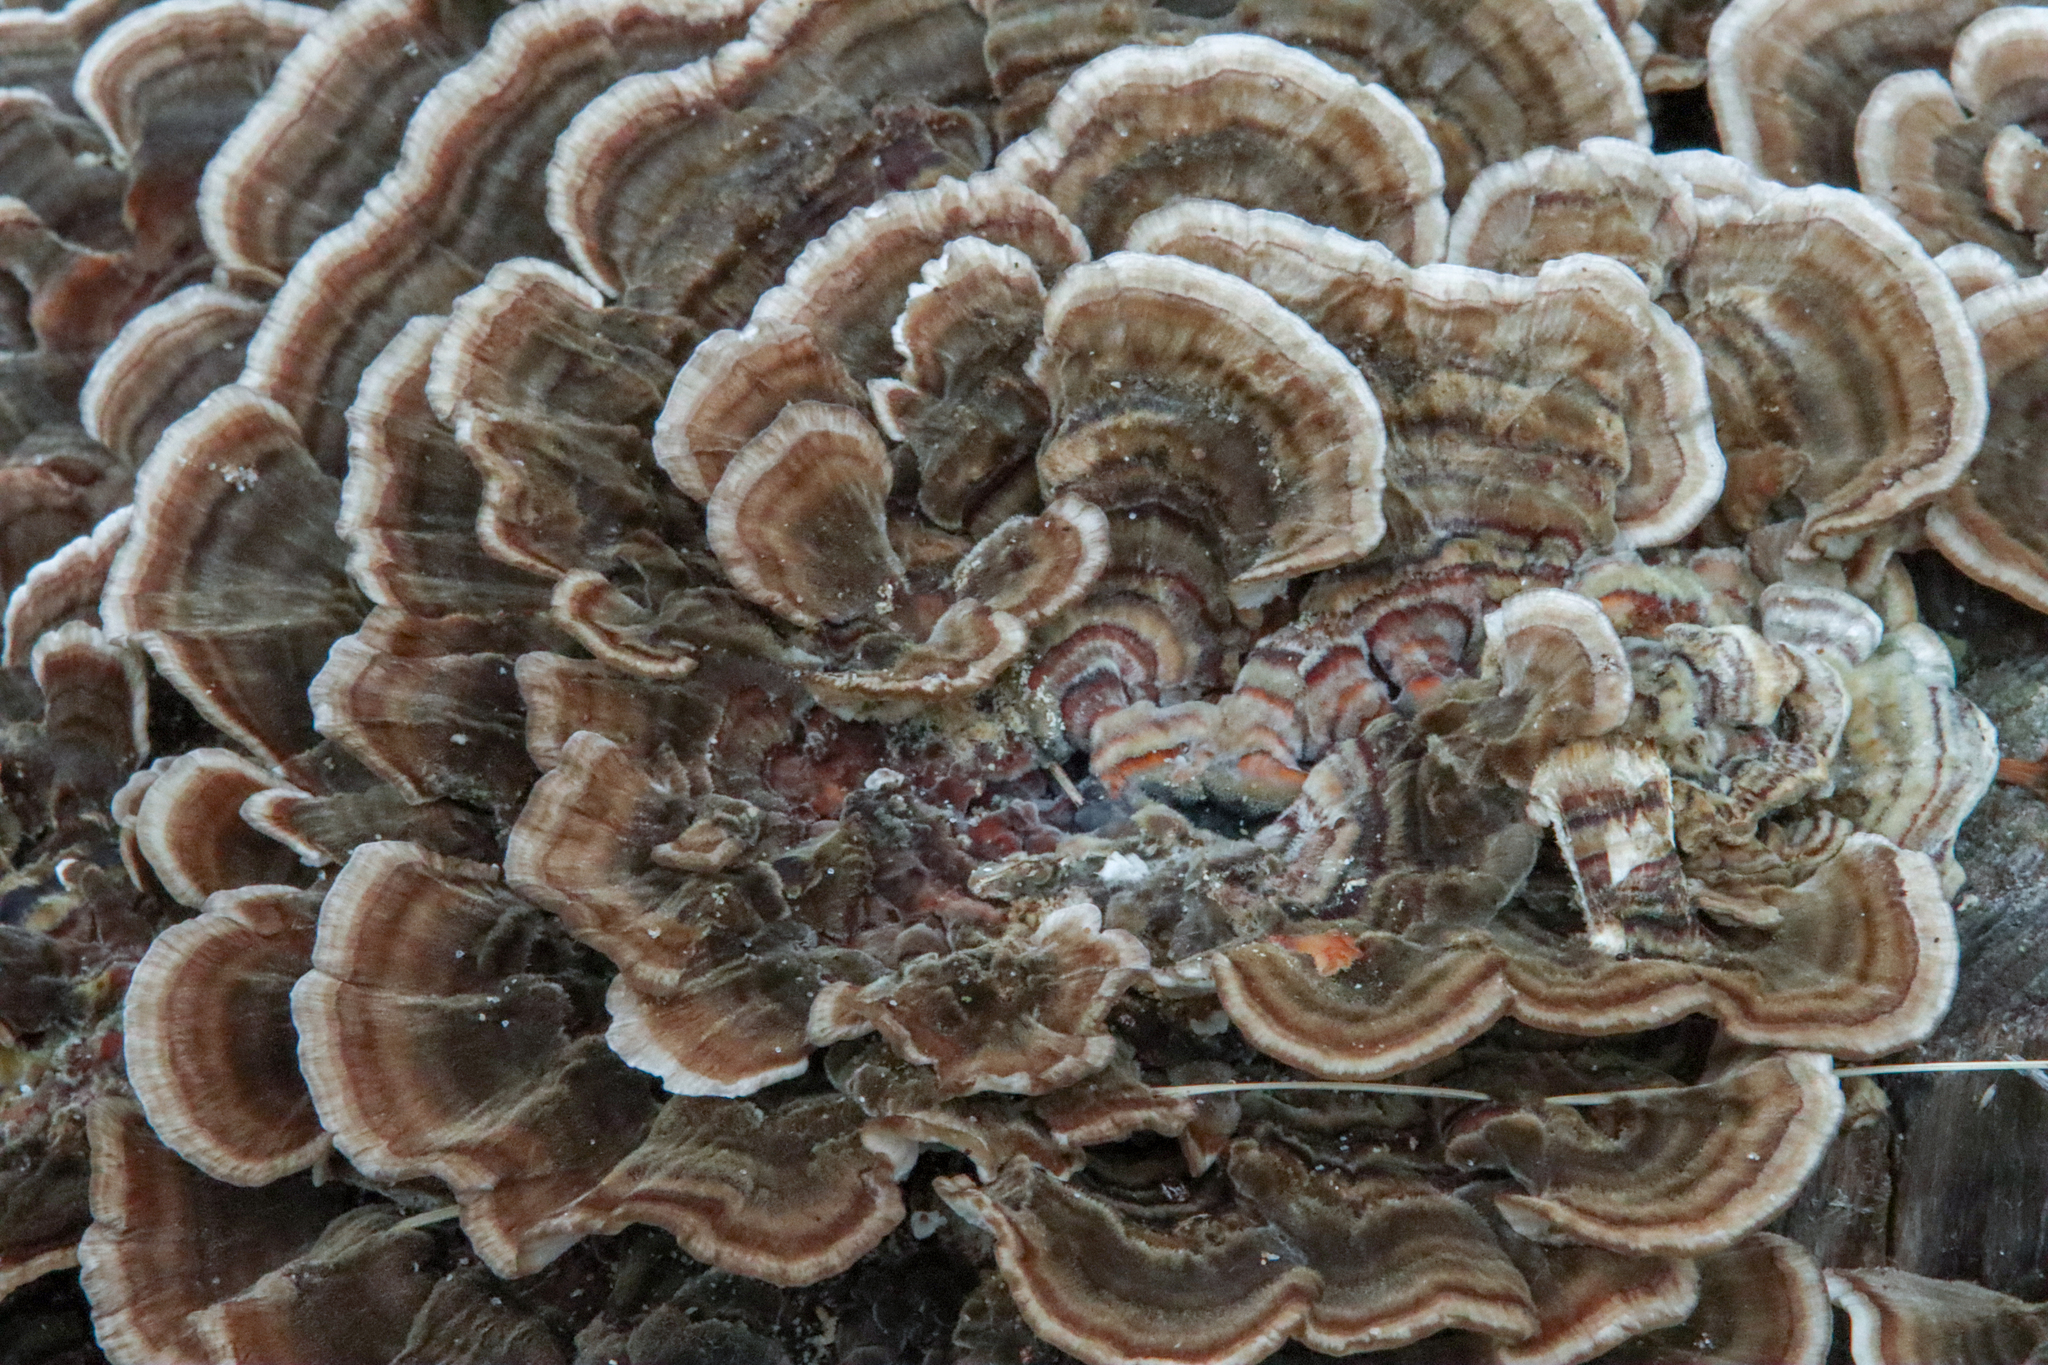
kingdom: Fungi
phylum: Basidiomycota
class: Agaricomycetes
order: Polyporales
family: Polyporaceae
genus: Trametes
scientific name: Trametes versicolor
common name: Turkeytail
